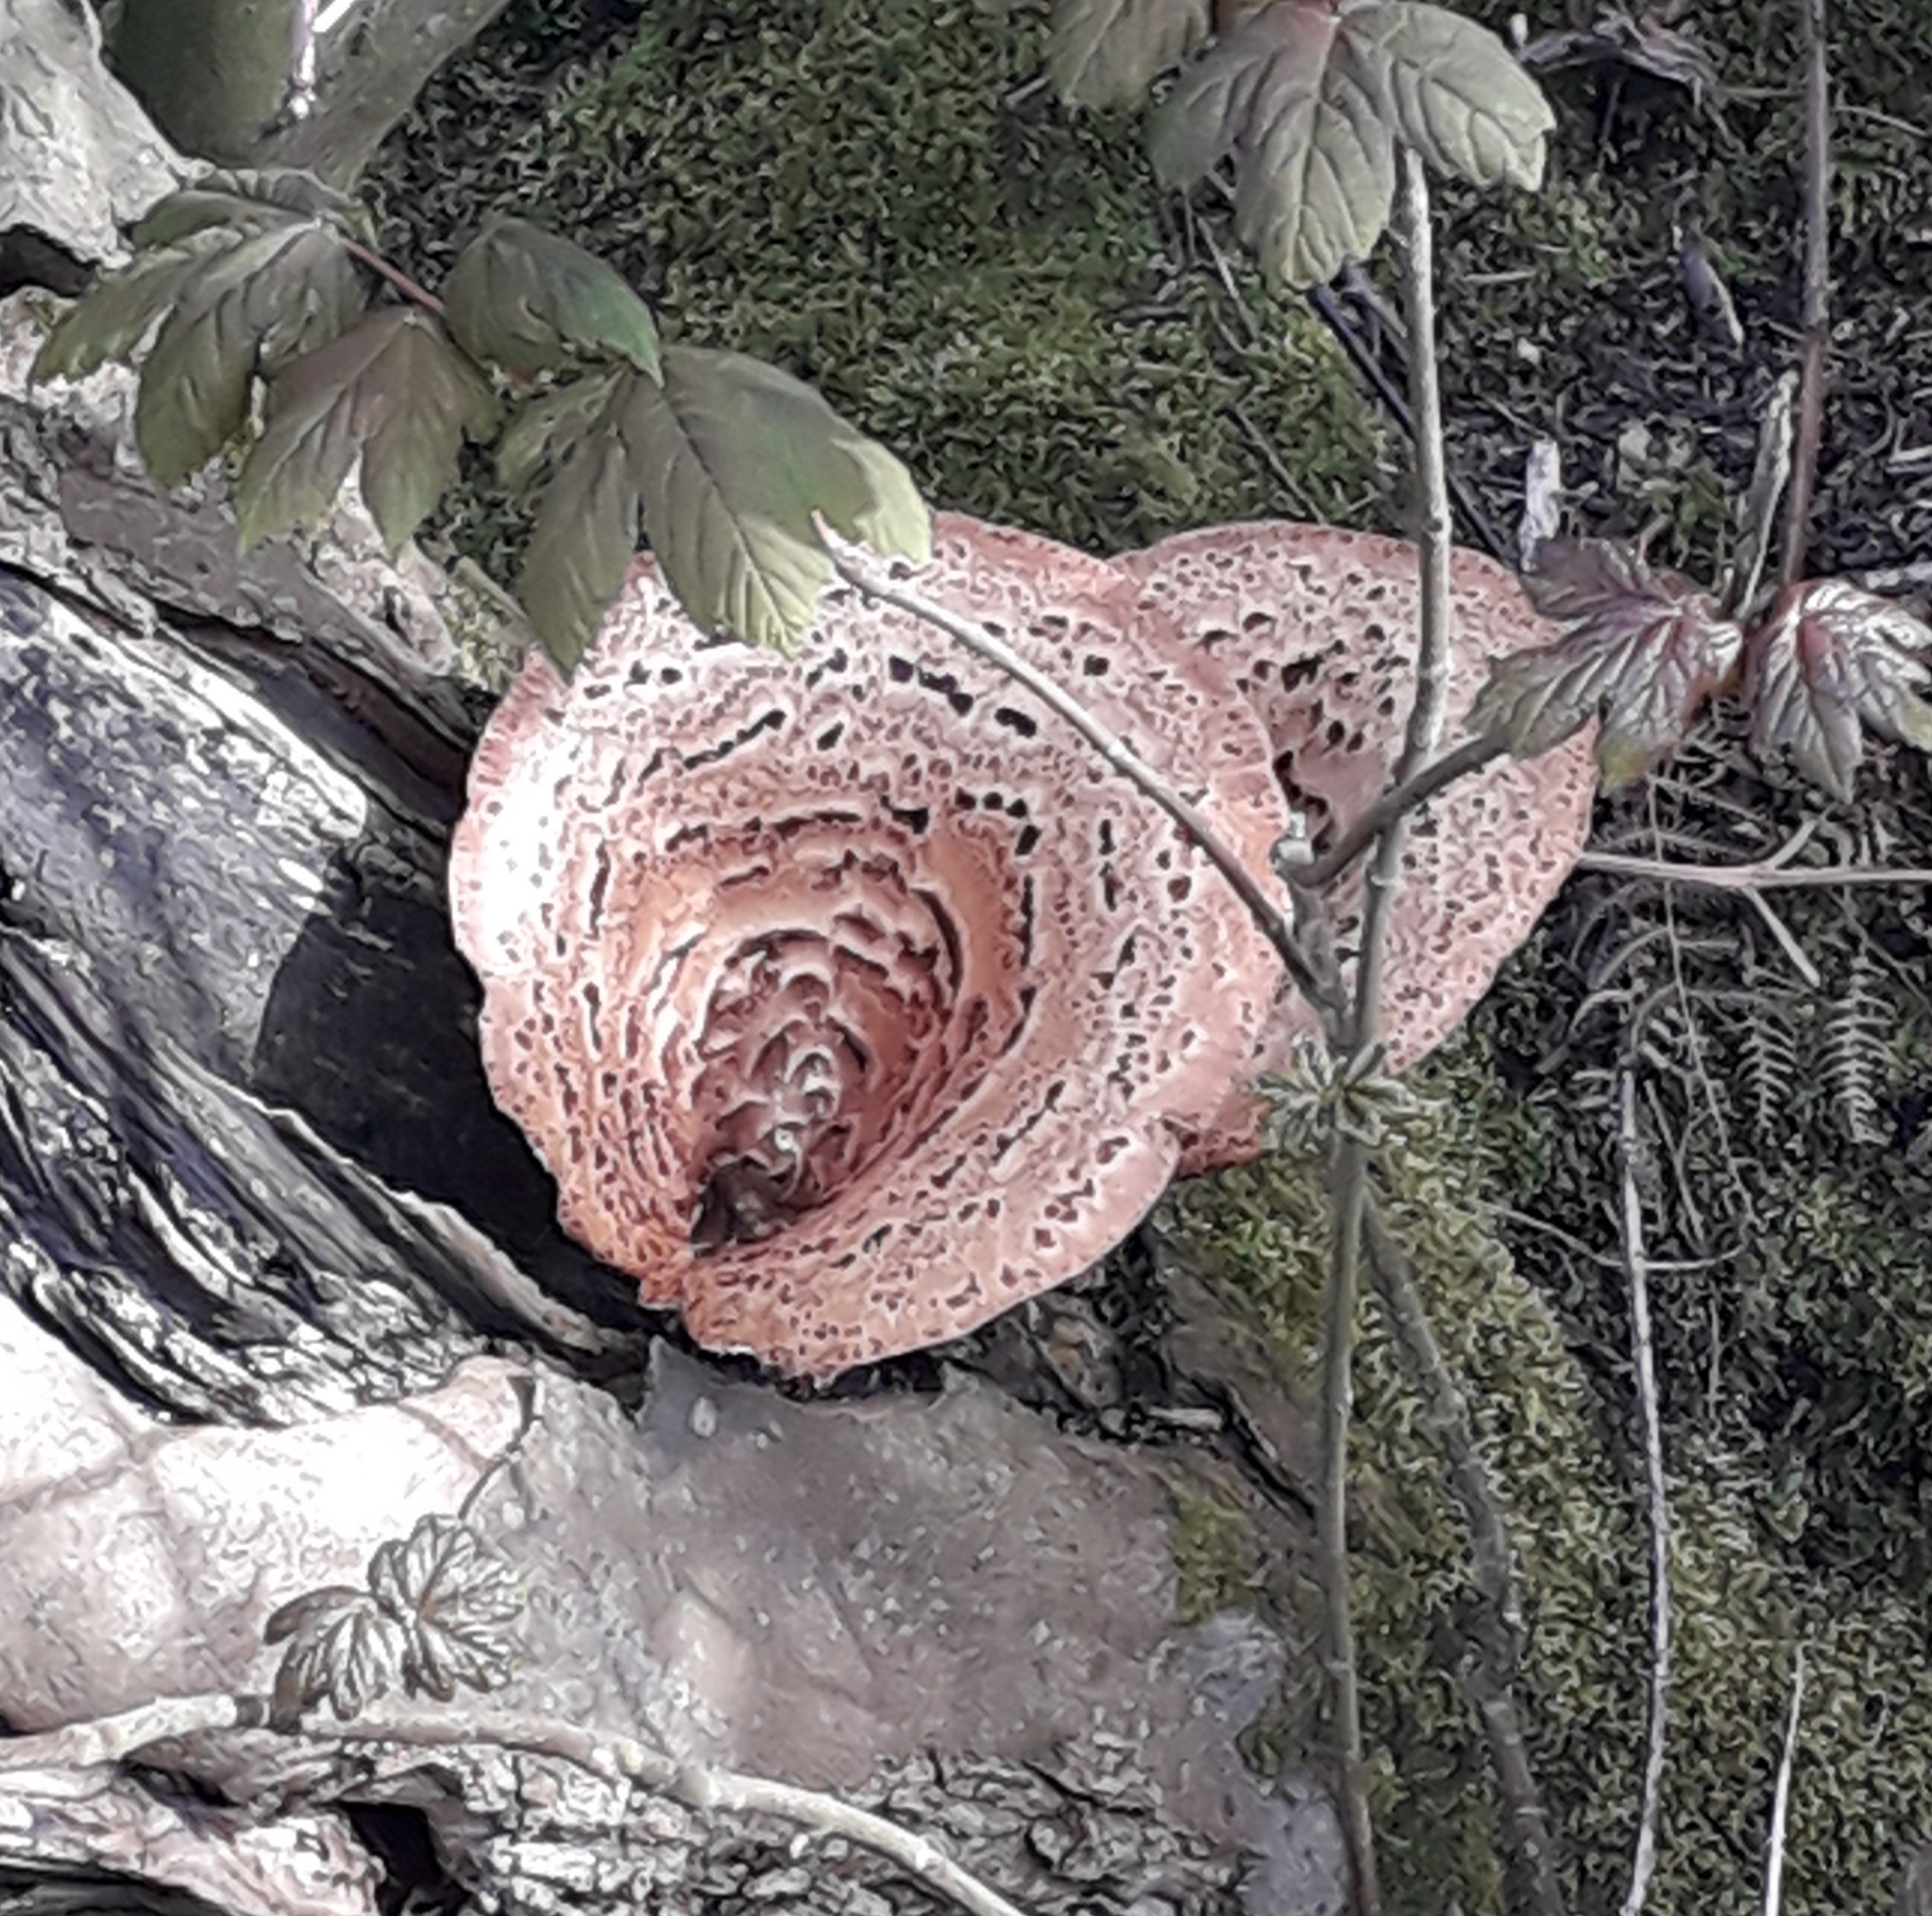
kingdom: Fungi
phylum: Basidiomycota
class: Agaricomycetes
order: Polyporales
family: Polyporaceae
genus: Cerioporus
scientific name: Cerioporus squamosus
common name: Dryad's saddle
